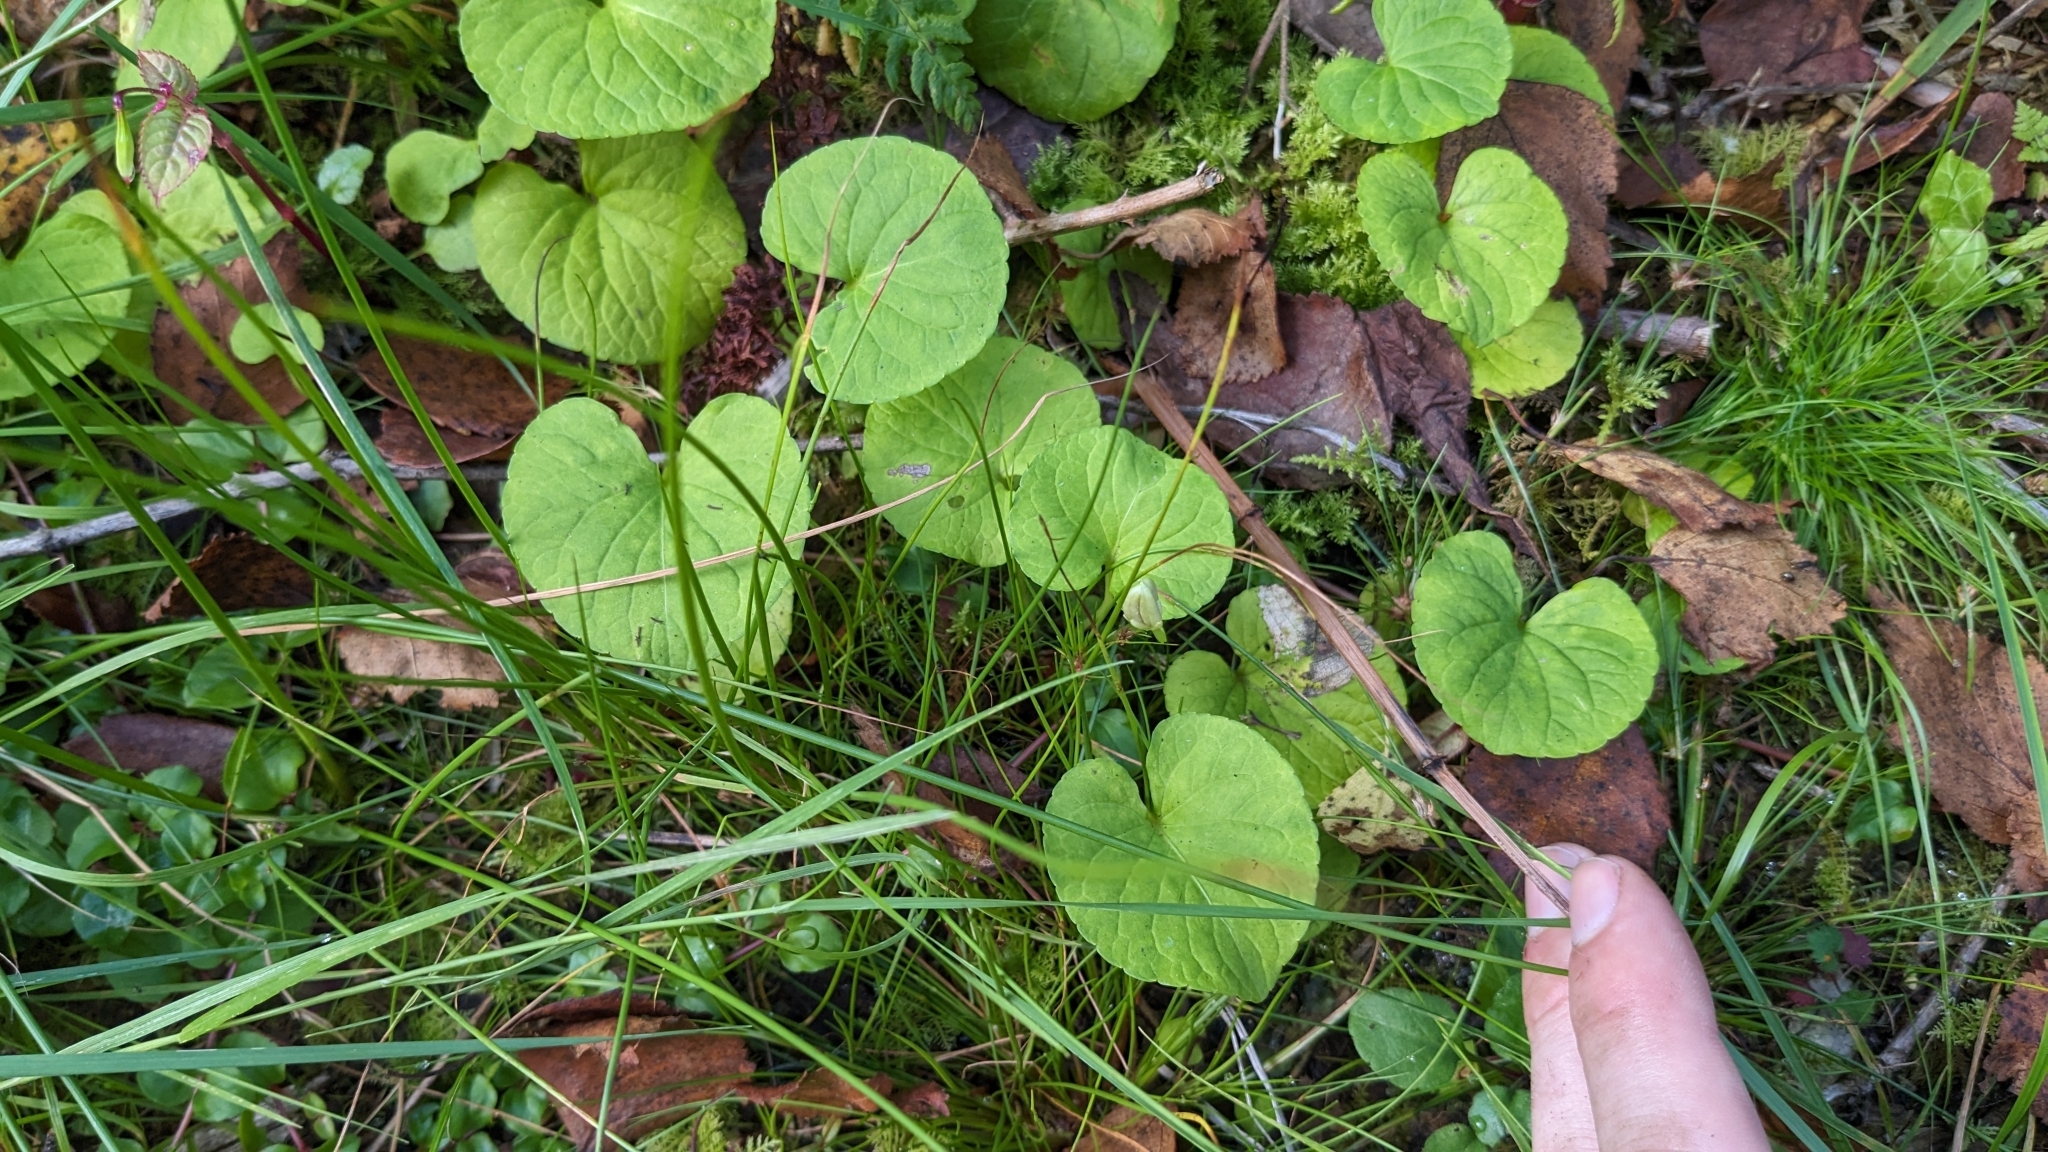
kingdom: Plantae
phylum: Tracheophyta
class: Magnoliopsida
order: Malpighiales
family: Violaceae
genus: Viola
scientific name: Viola palustris
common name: Marsh violet
